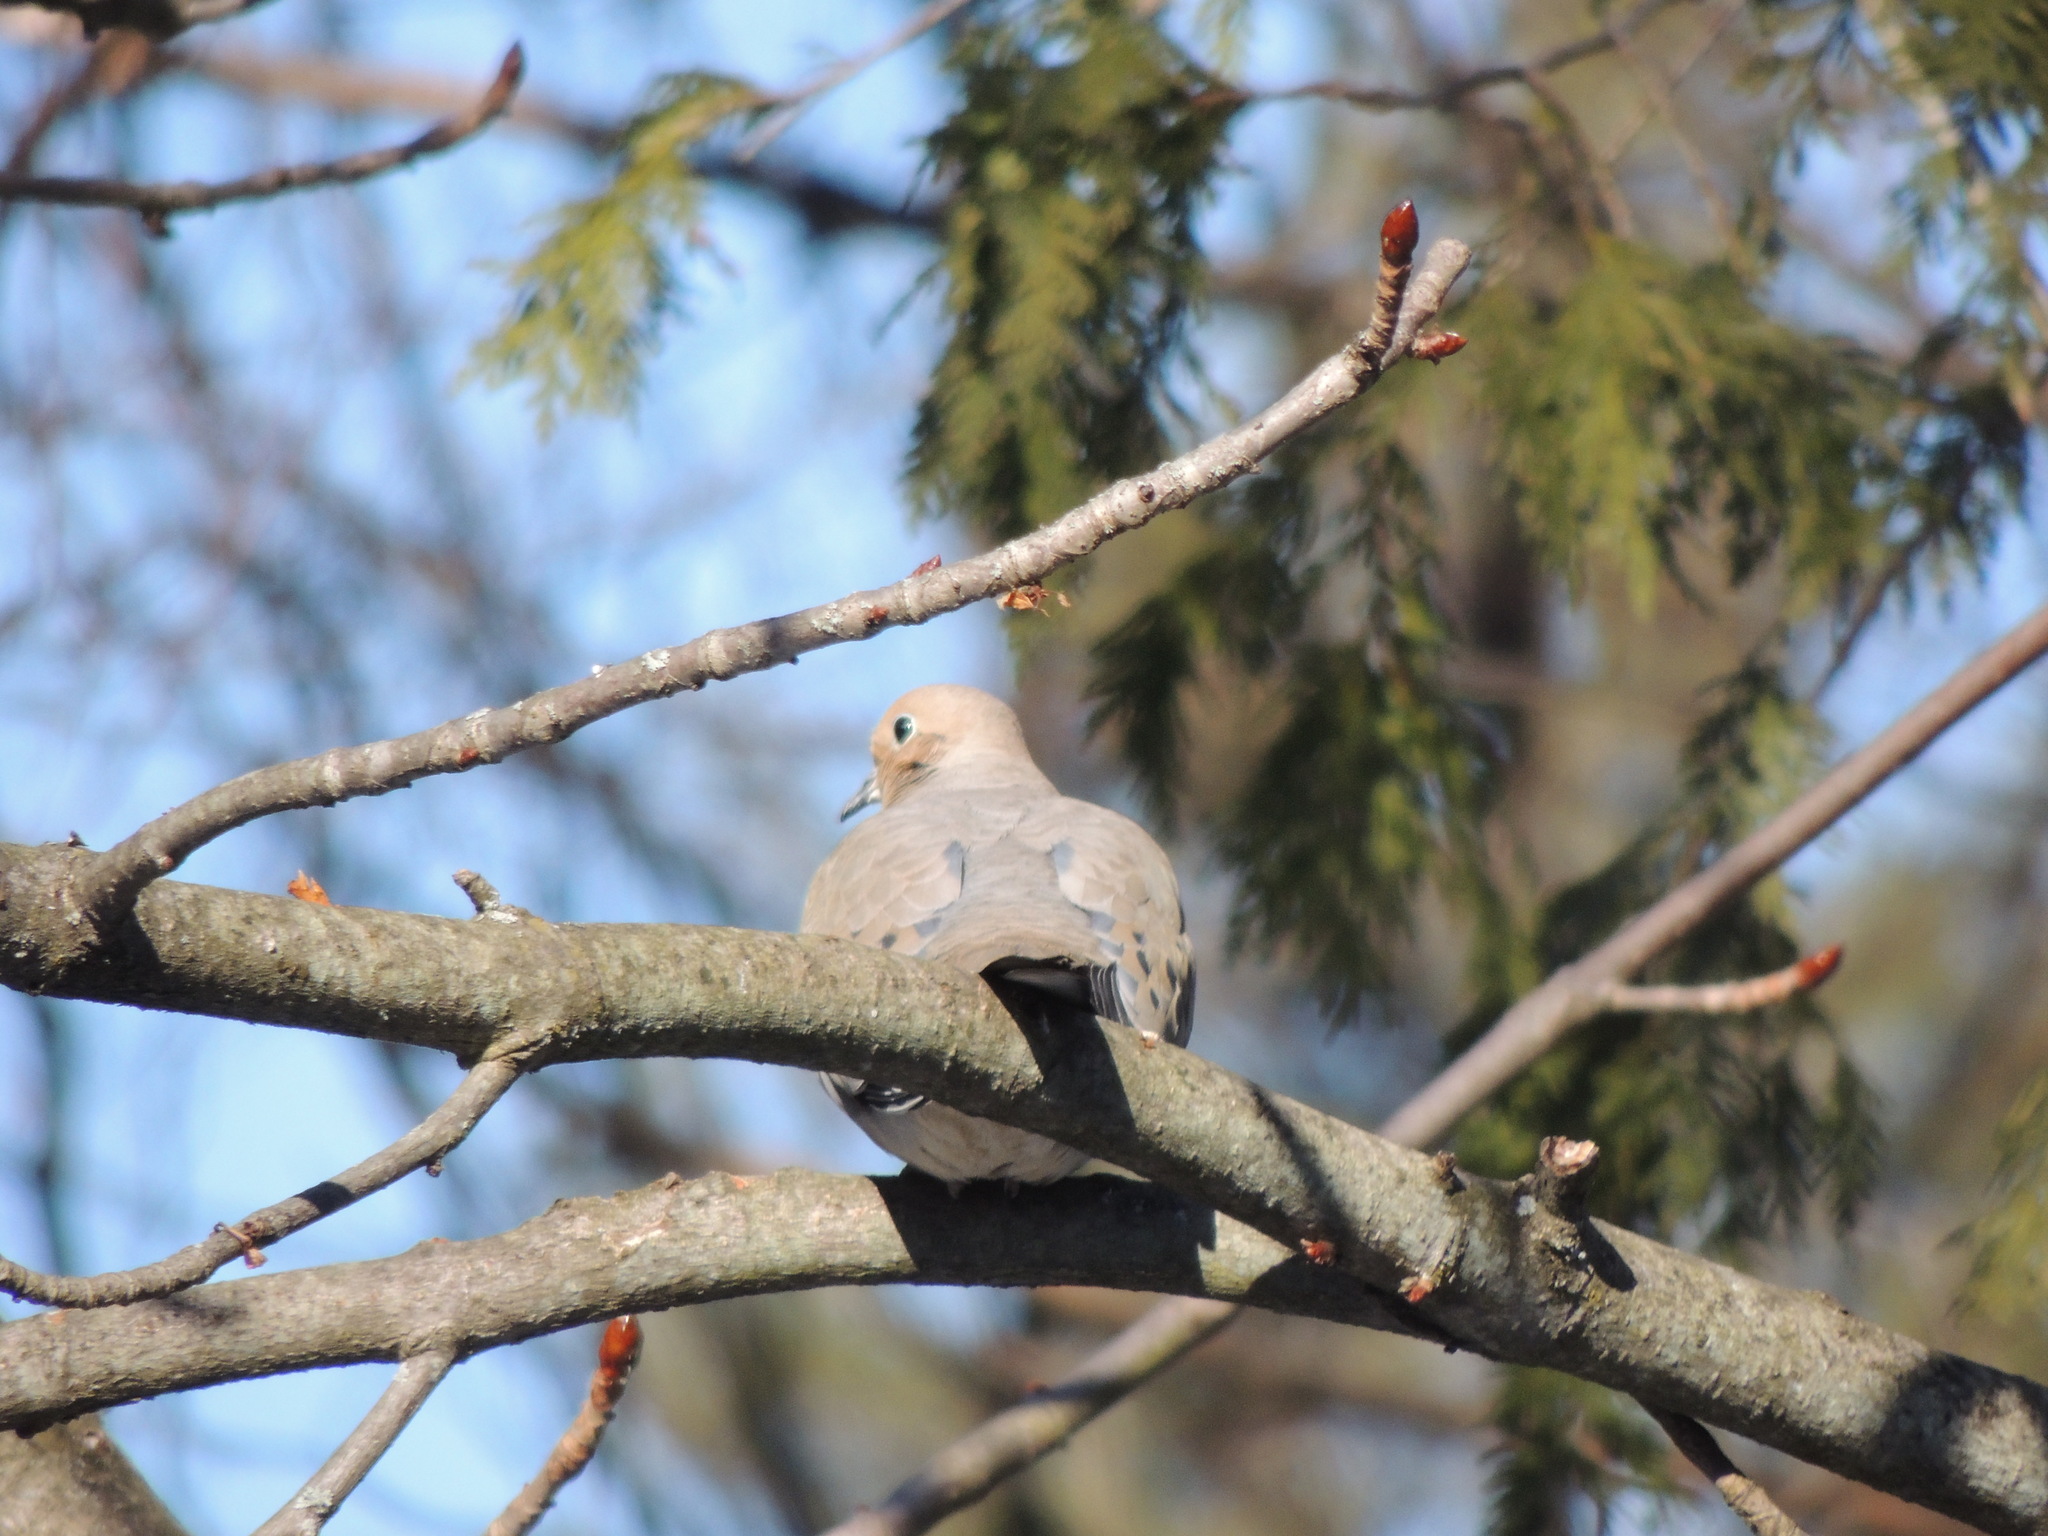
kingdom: Animalia
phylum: Chordata
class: Aves
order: Columbiformes
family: Columbidae
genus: Zenaida
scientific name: Zenaida macroura
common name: Mourning dove
